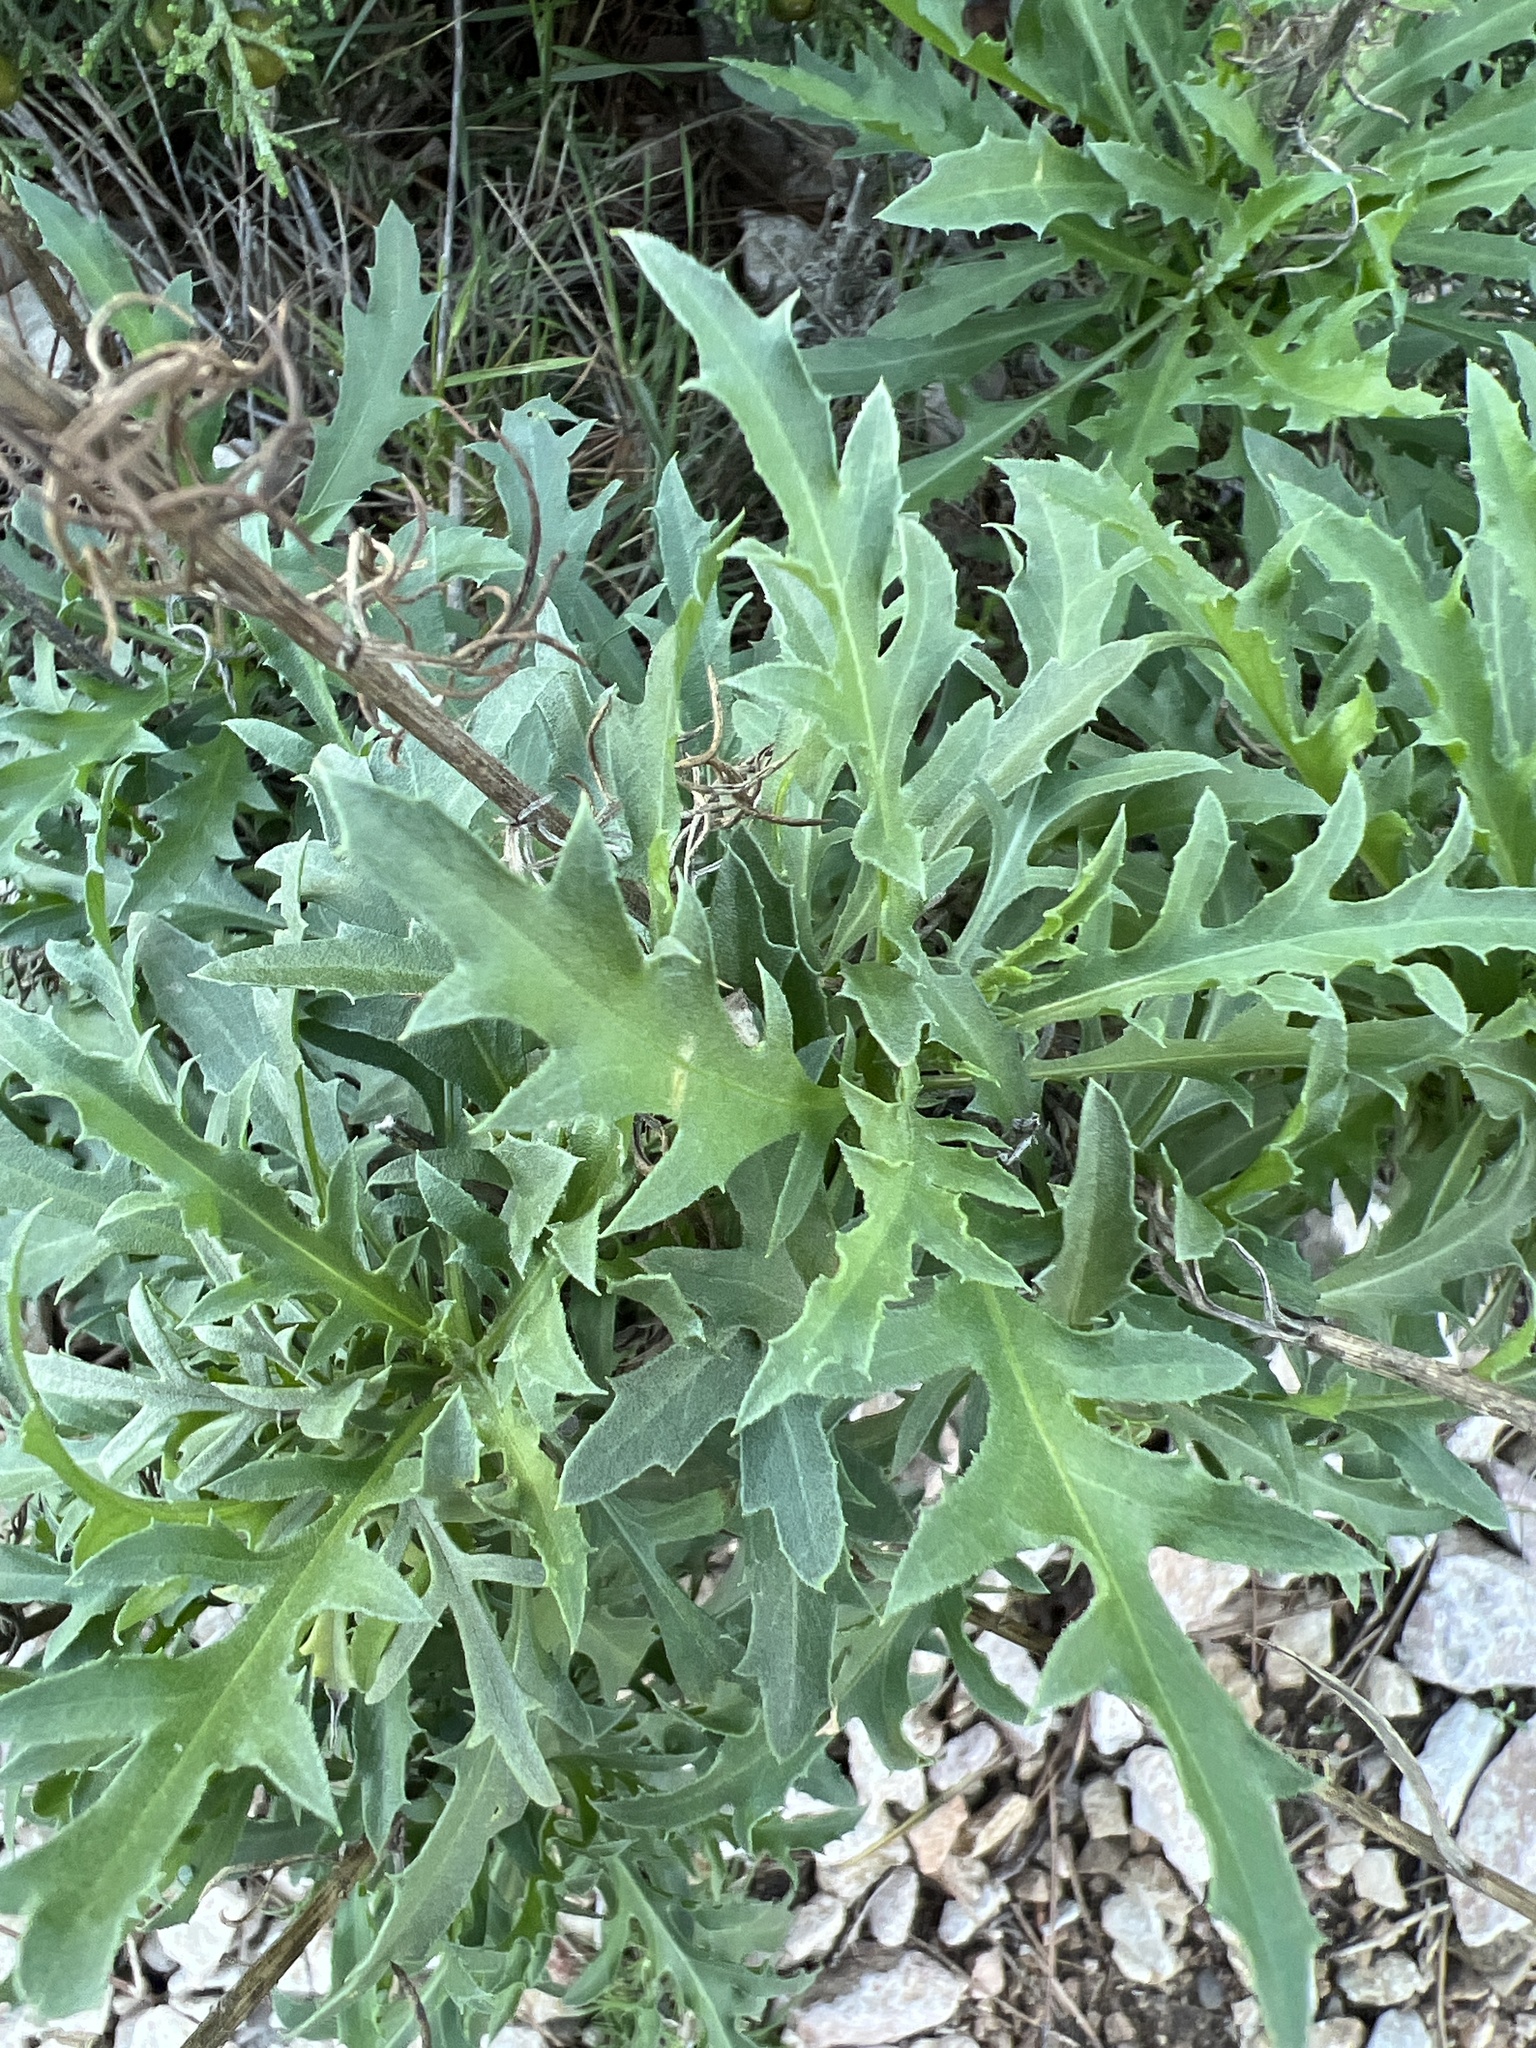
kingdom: Plantae
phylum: Tracheophyta
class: Magnoliopsida
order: Asterales
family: Asteraceae
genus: Cheirolophus
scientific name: Cheirolophus intybaceus
